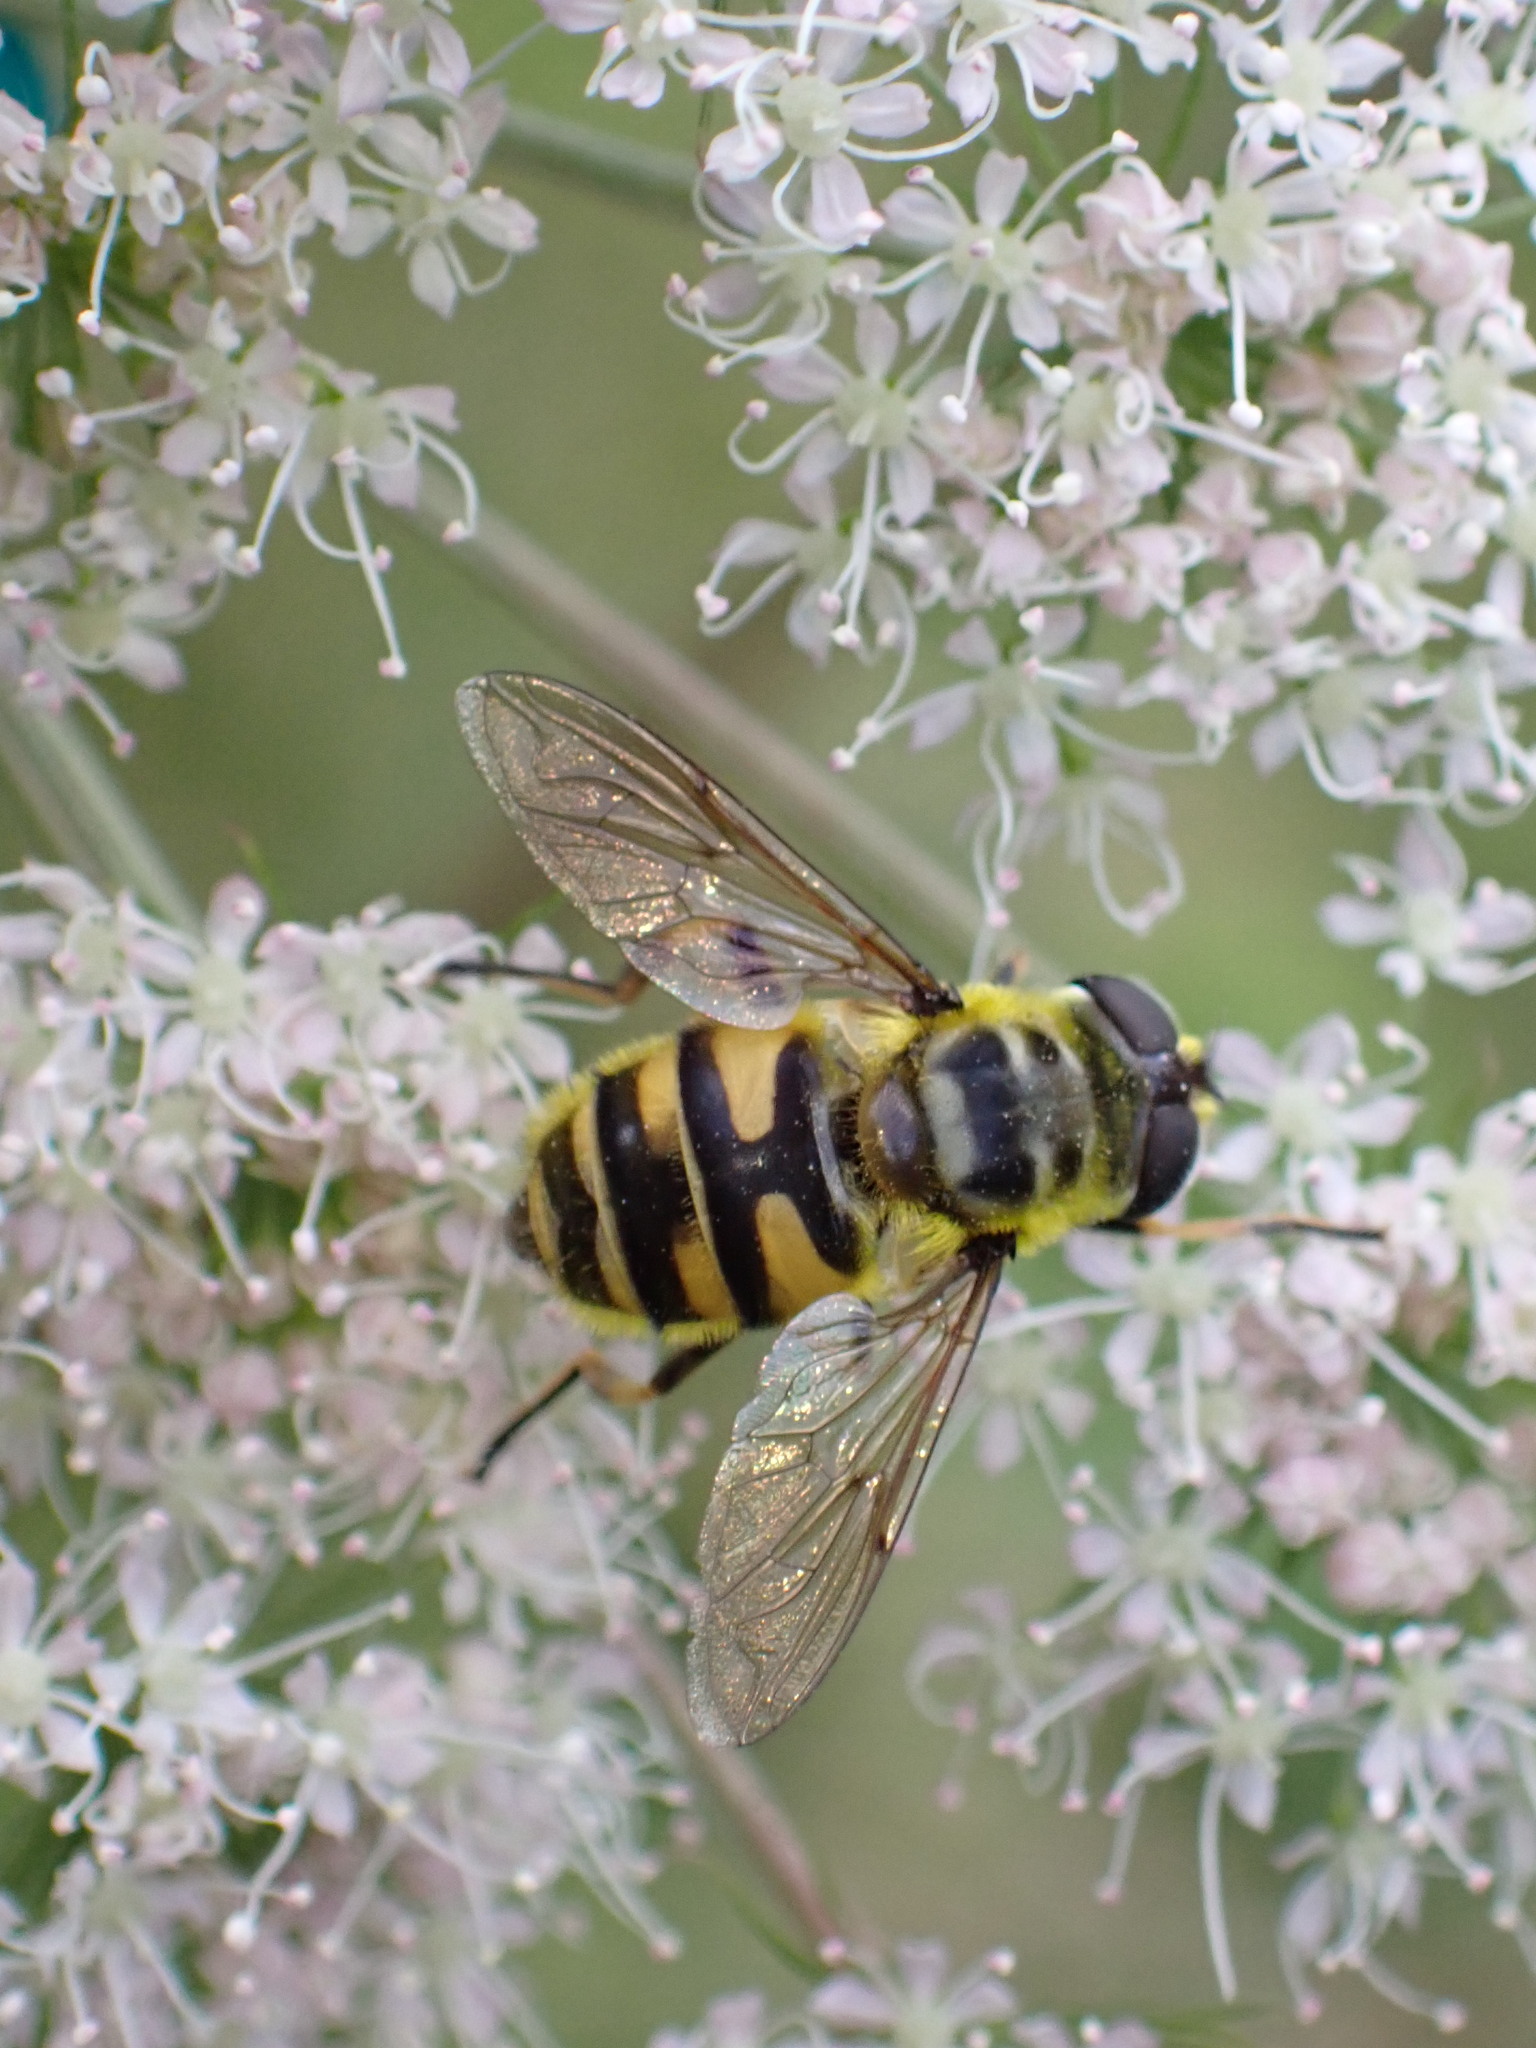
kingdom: Animalia
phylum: Arthropoda
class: Insecta
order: Diptera
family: Syrphidae
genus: Myathropa
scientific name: Myathropa florea
